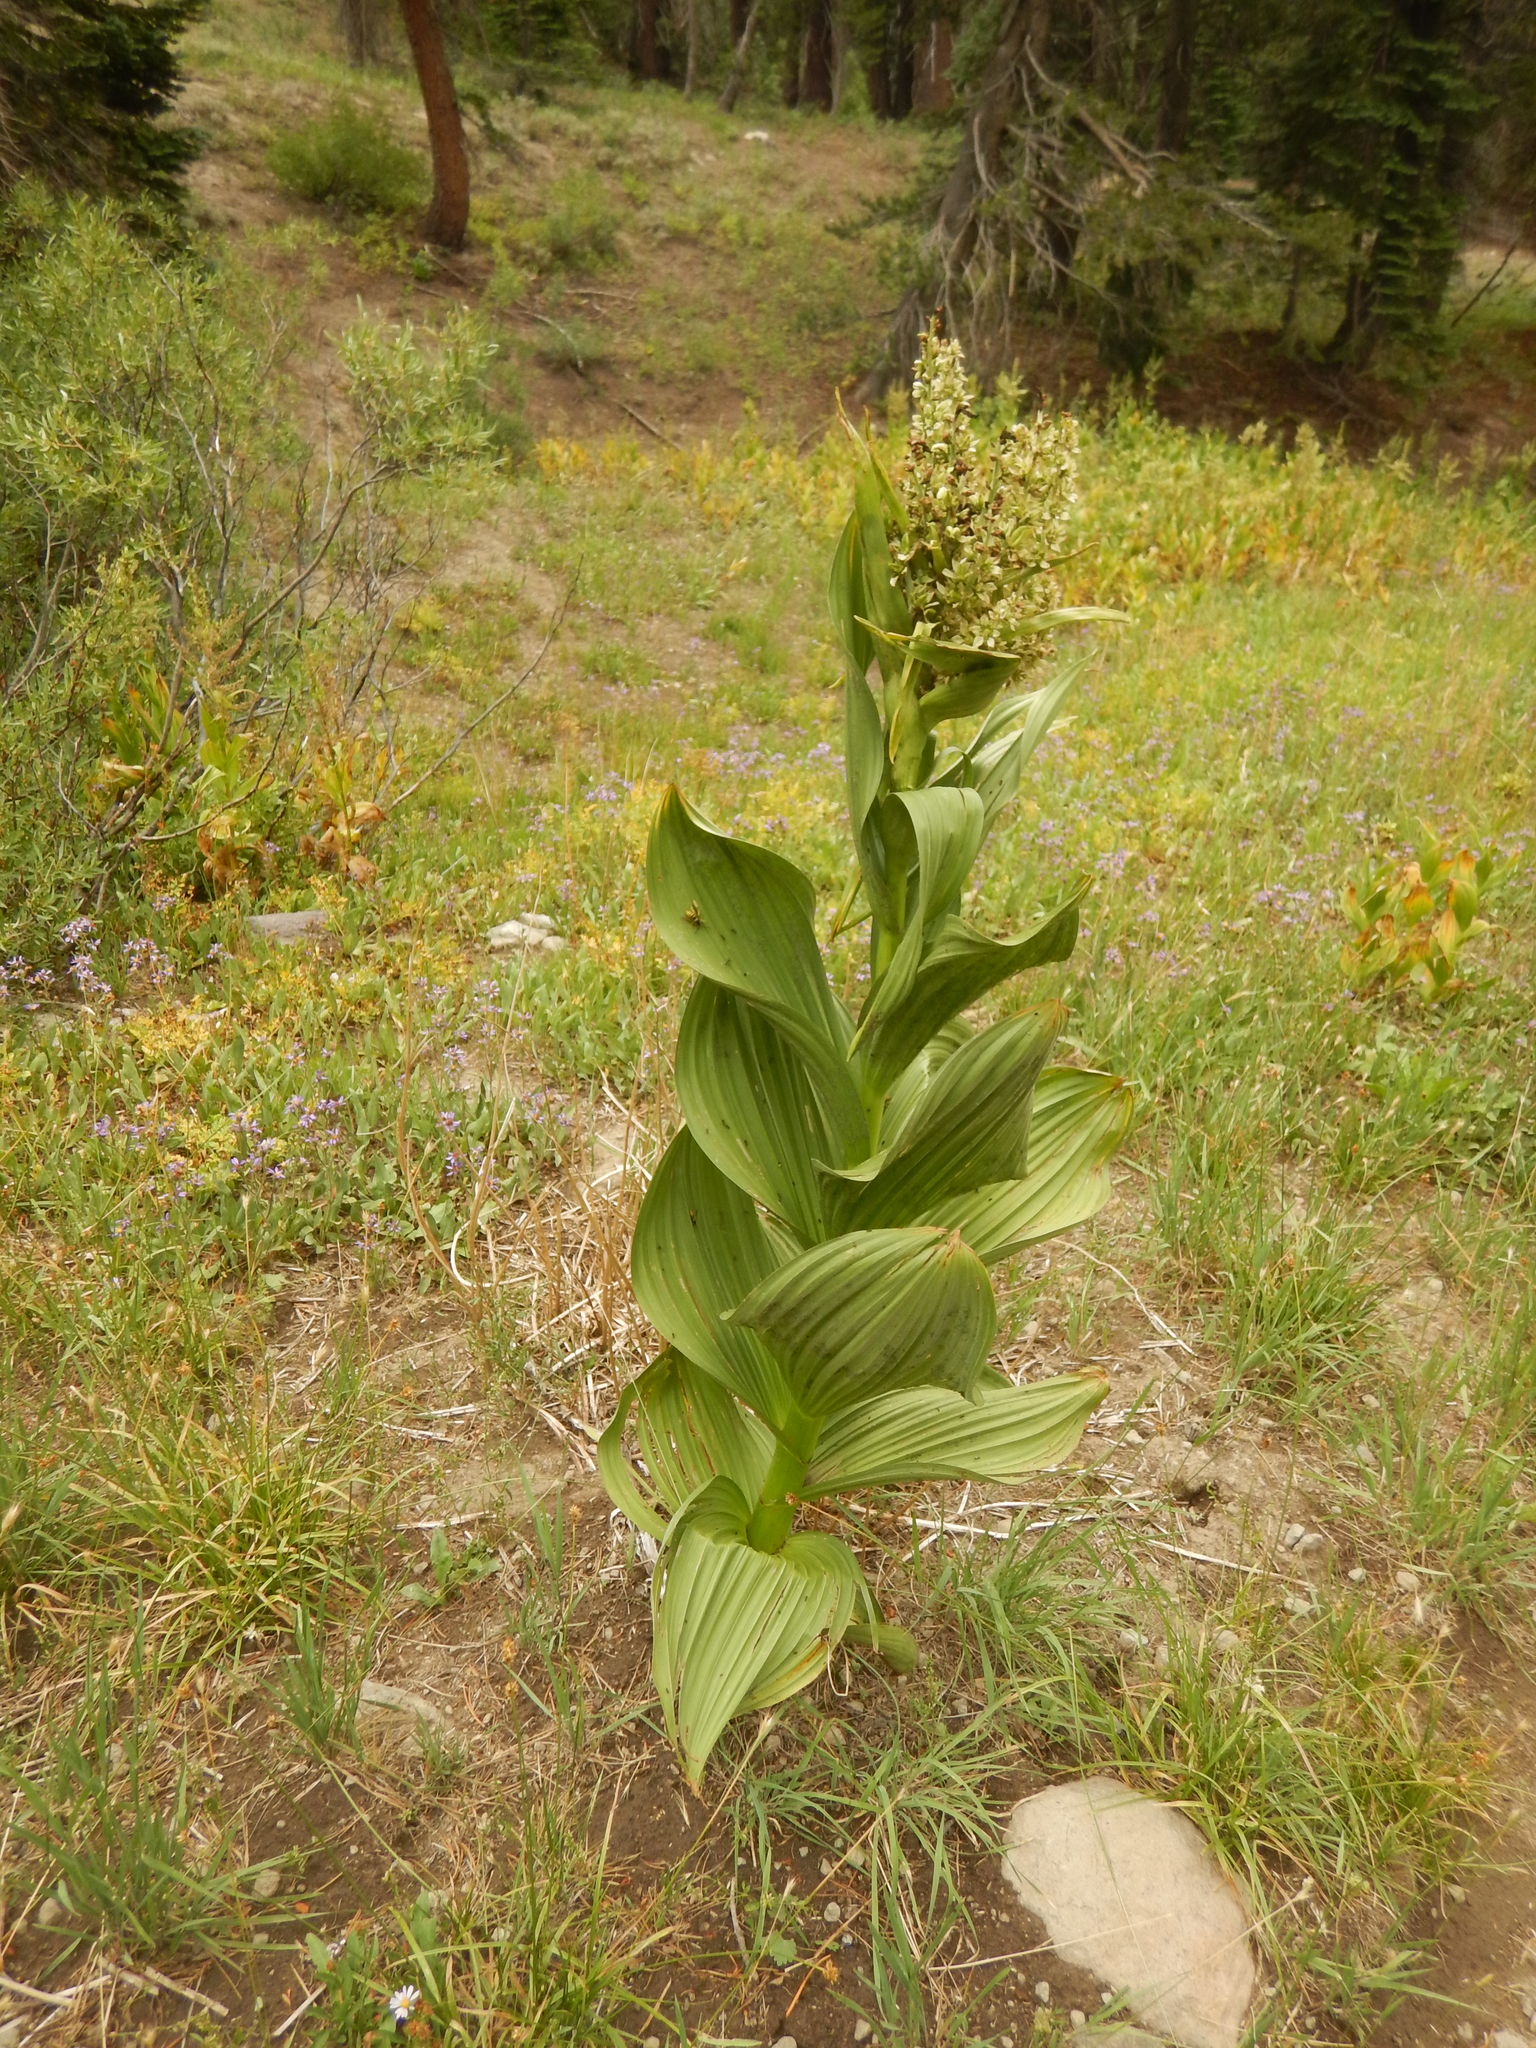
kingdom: Plantae
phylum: Tracheophyta
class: Liliopsida
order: Liliales
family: Melanthiaceae
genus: Veratrum
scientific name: Veratrum californicum
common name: California veratrum
